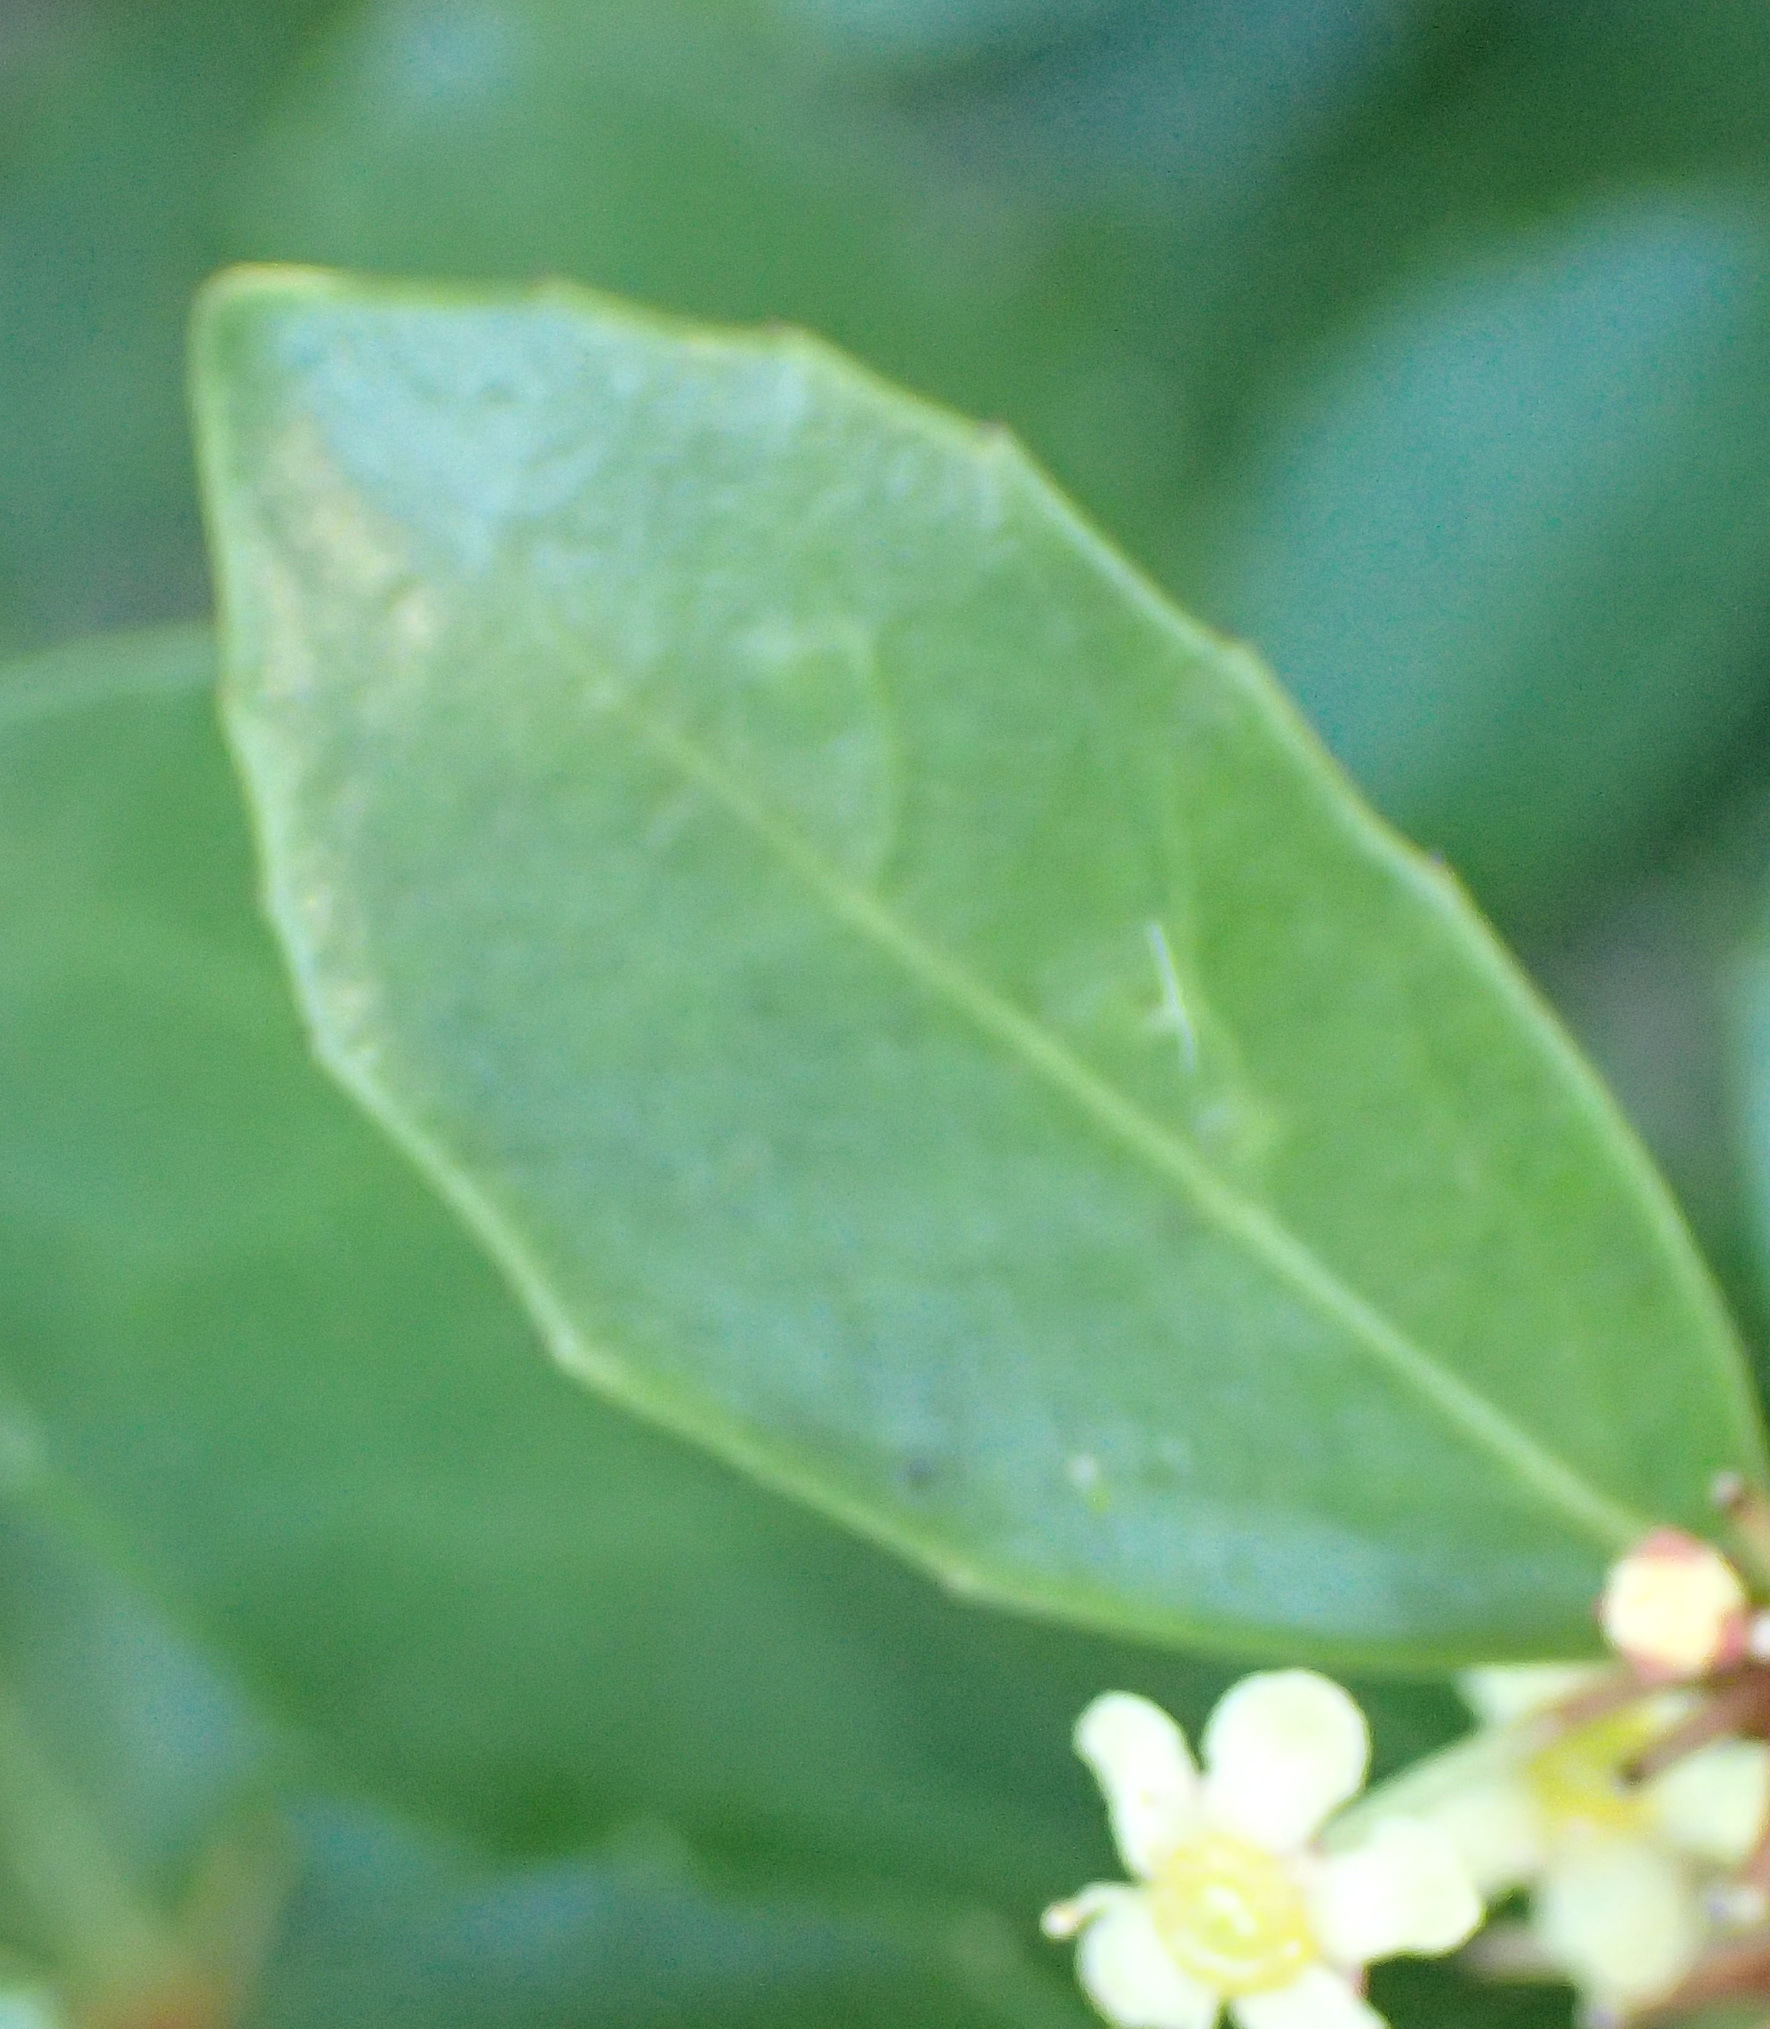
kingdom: Plantae
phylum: Tracheophyta
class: Magnoliopsida
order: Celastrales
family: Celastraceae
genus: Gymnosporia
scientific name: Gymnosporia procumbens
